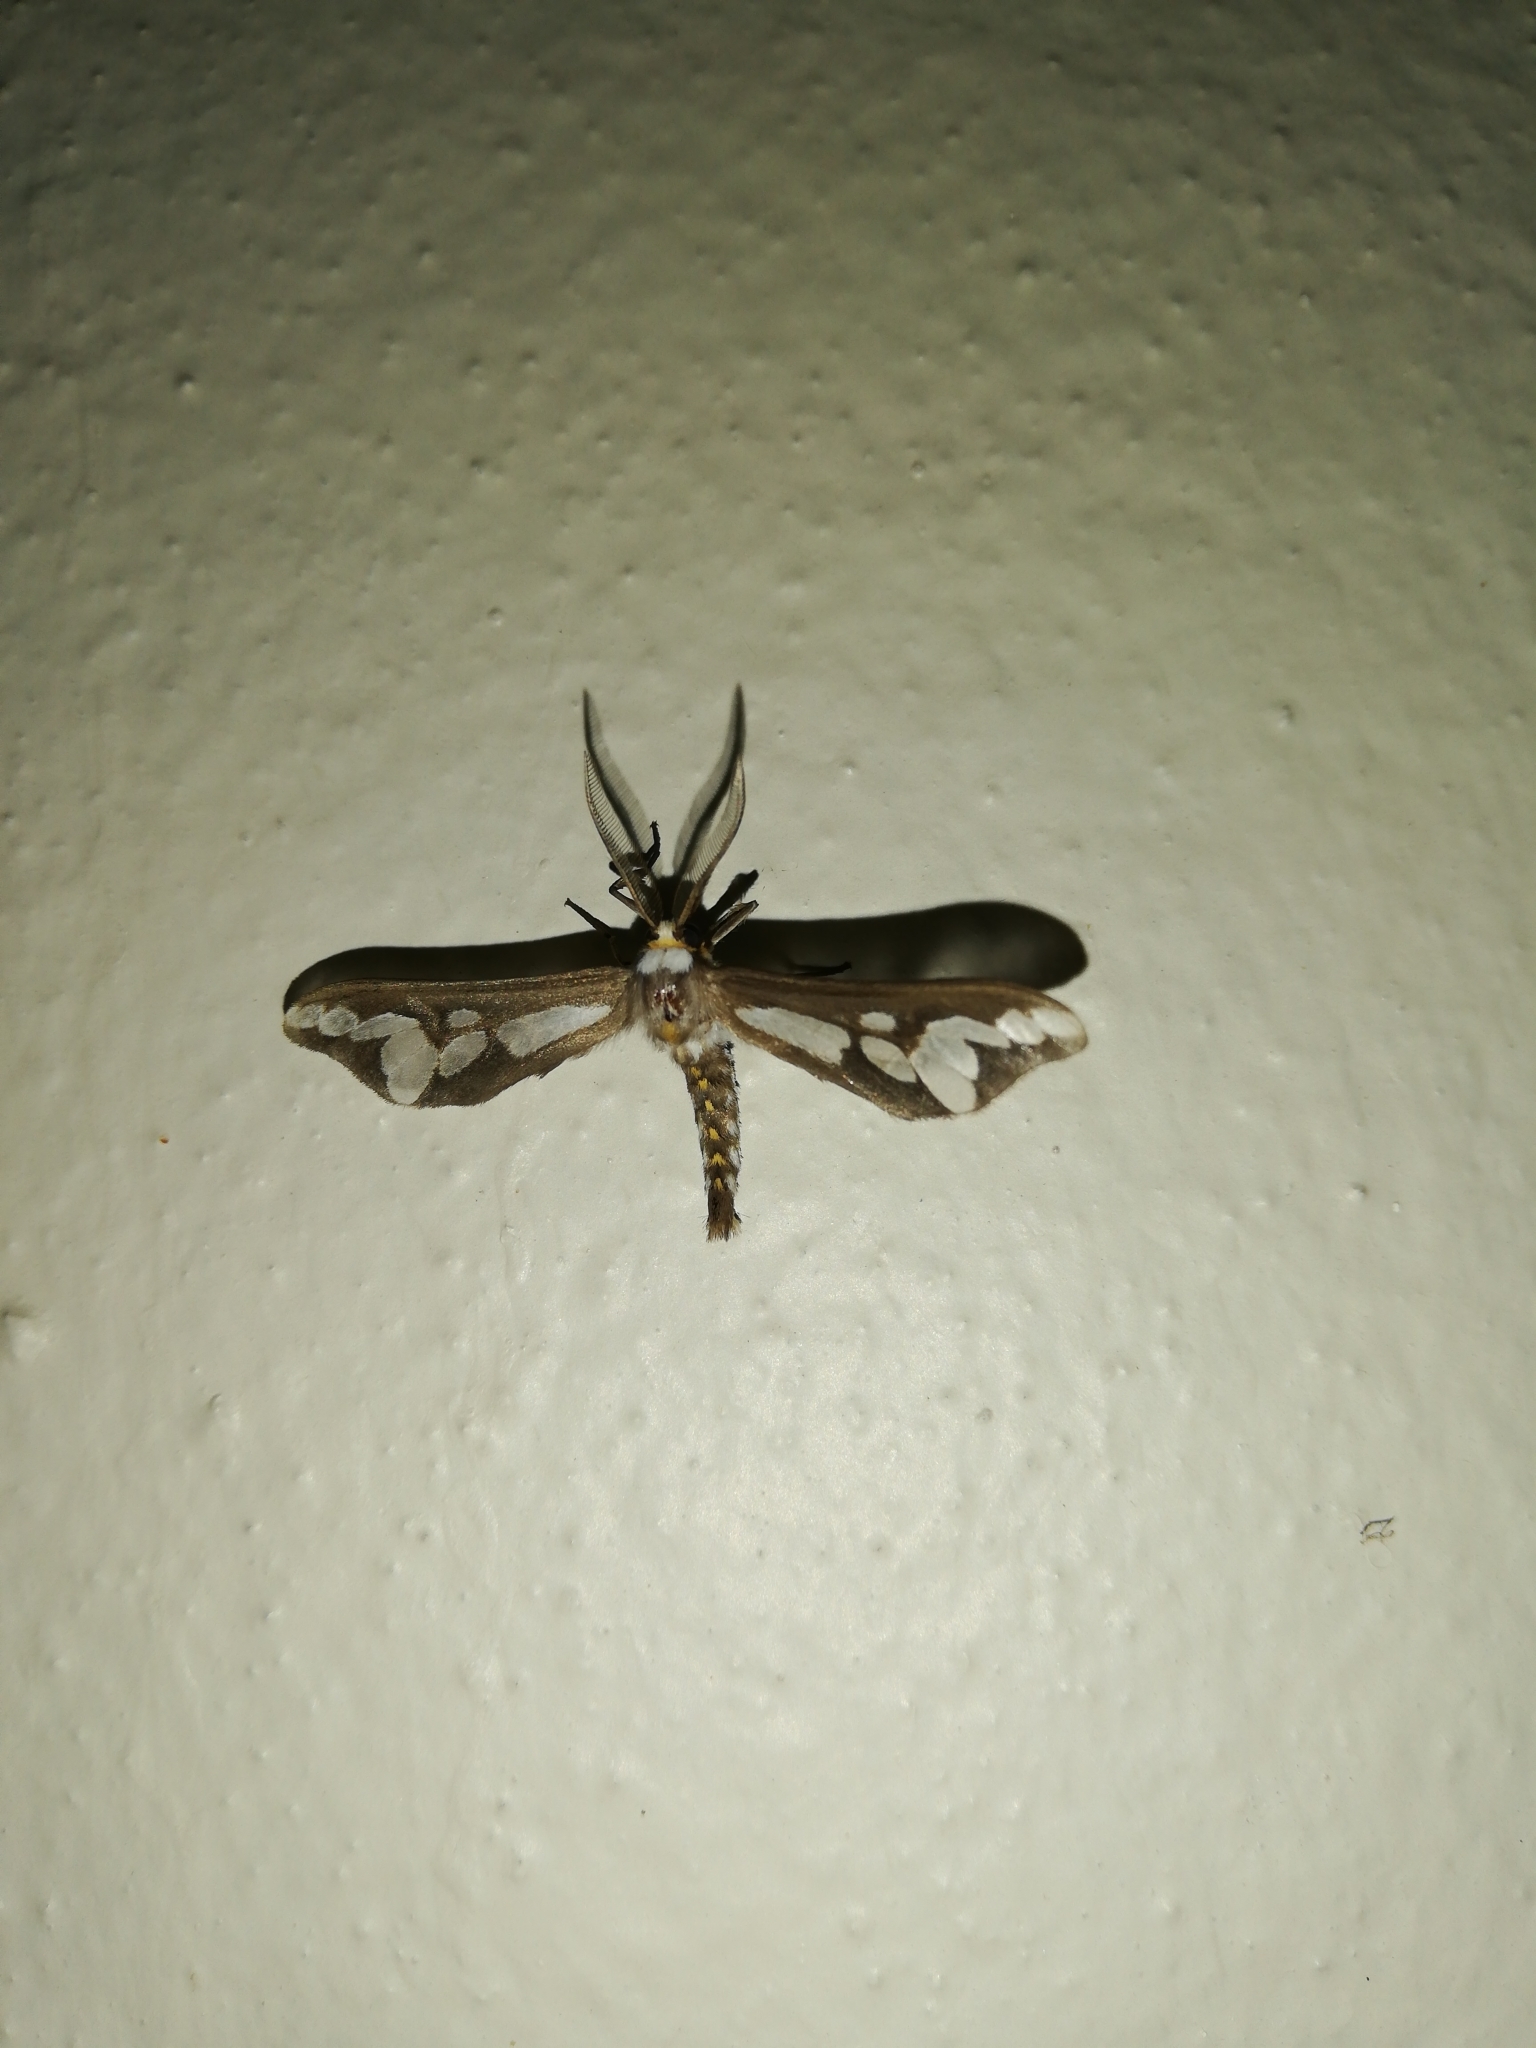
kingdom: Animalia
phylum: Arthropoda
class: Insecta
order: Lepidoptera
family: Erebidae
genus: Thyretes
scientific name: Thyretes caffra
